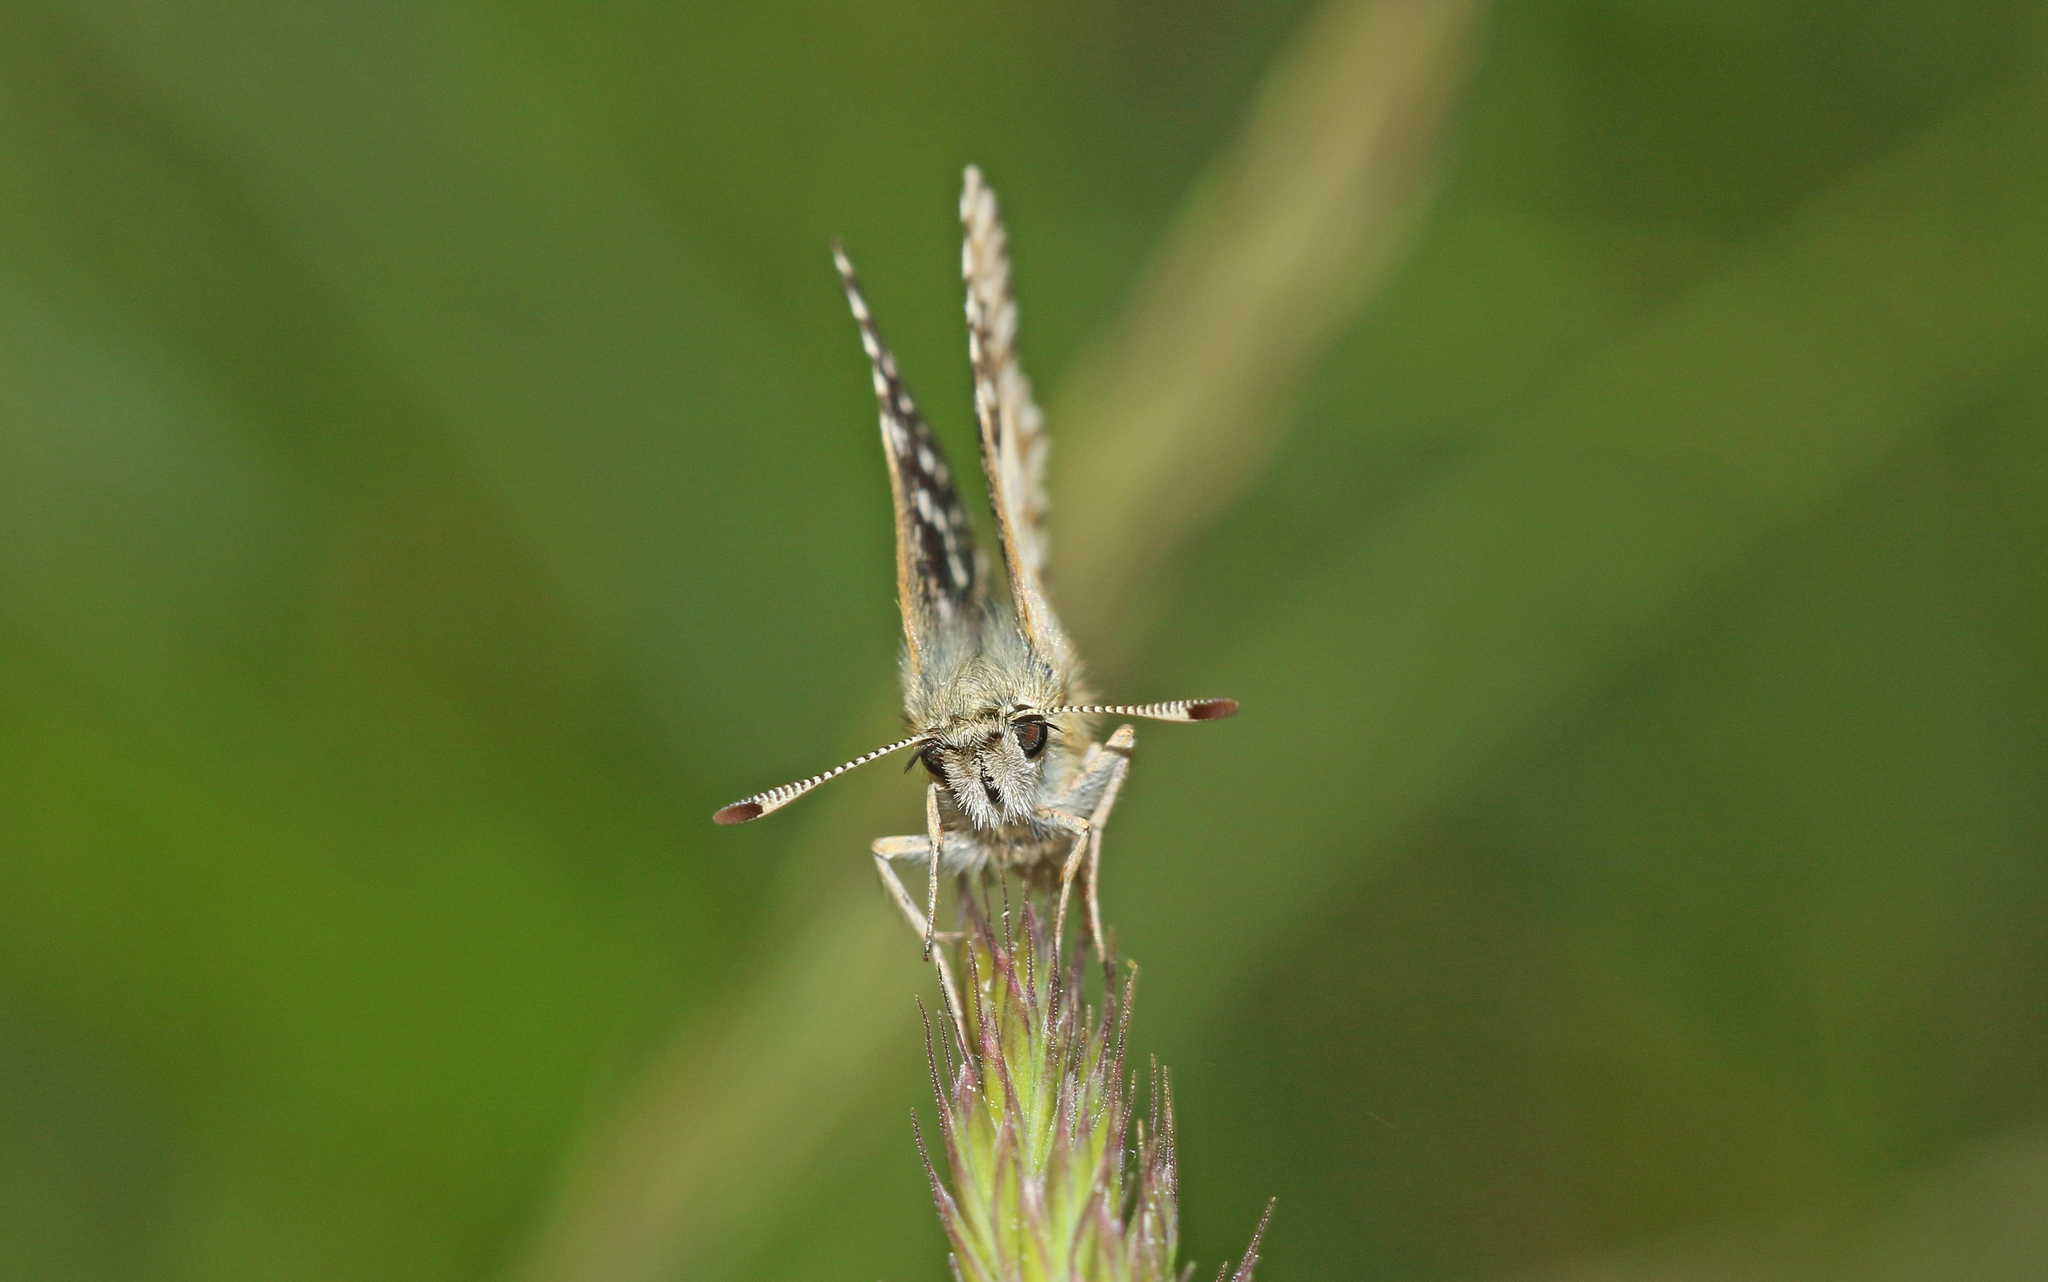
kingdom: Animalia
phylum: Arthropoda
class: Insecta
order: Lepidoptera
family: Hesperiidae
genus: Pyrgus
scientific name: Pyrgus malvae
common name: Grizzled skipper
